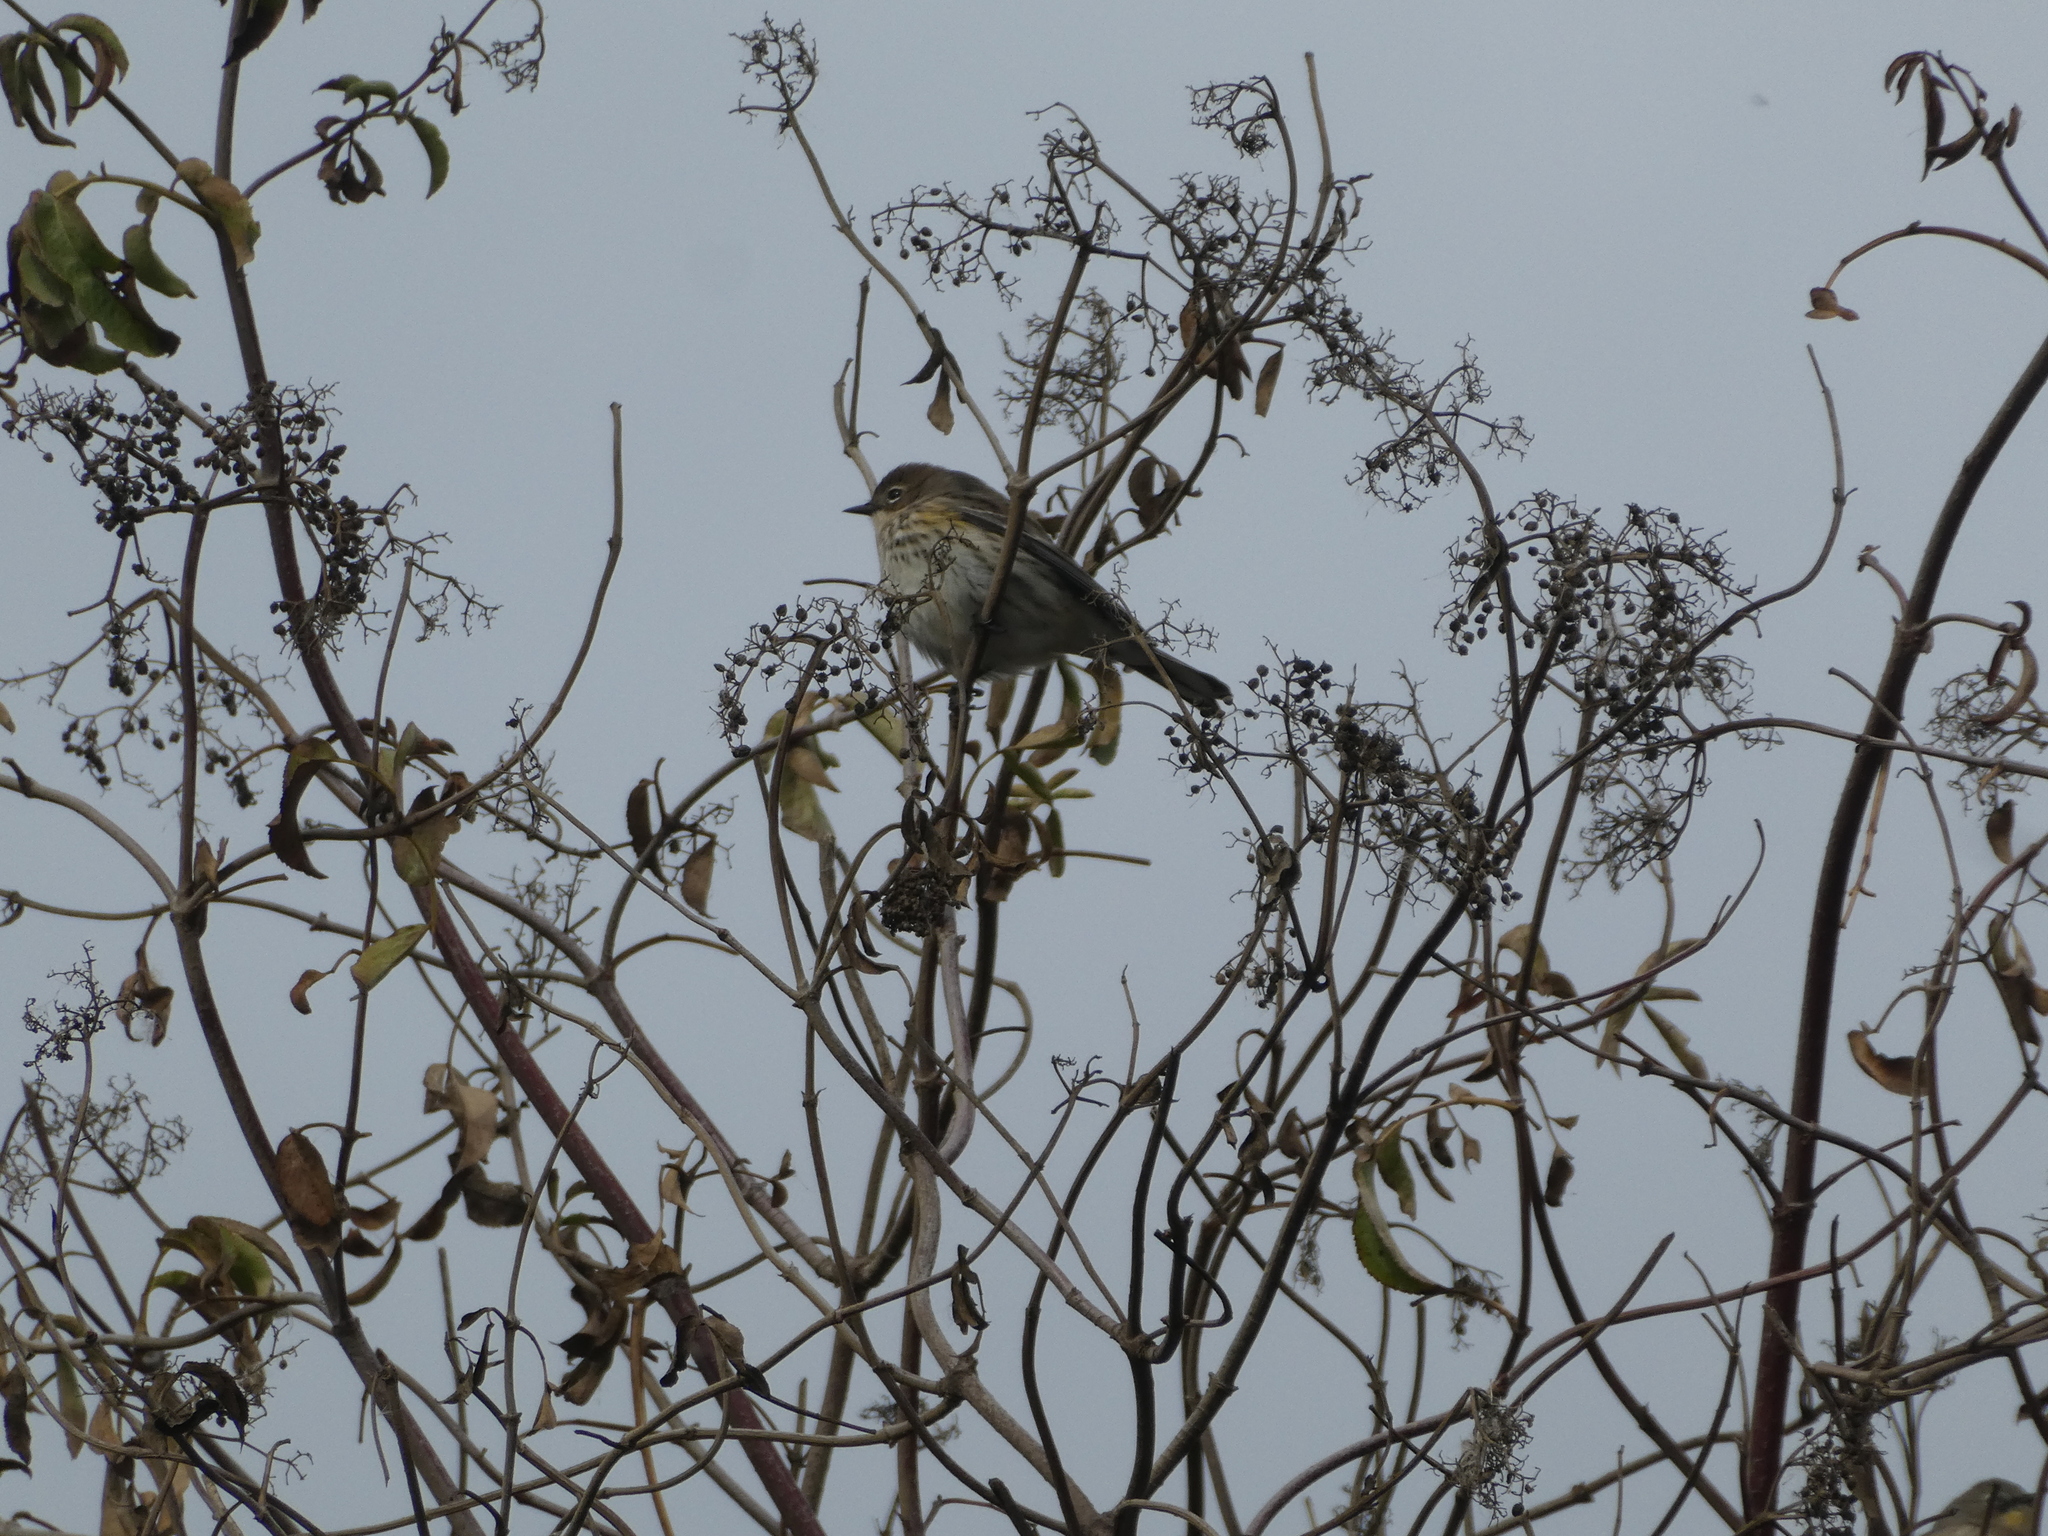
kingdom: Animalia
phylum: Chordata
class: Aves
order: Passeriformes
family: Parulidae
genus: Setophaga
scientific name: Setophaga coronata
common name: Myrtle warbler
